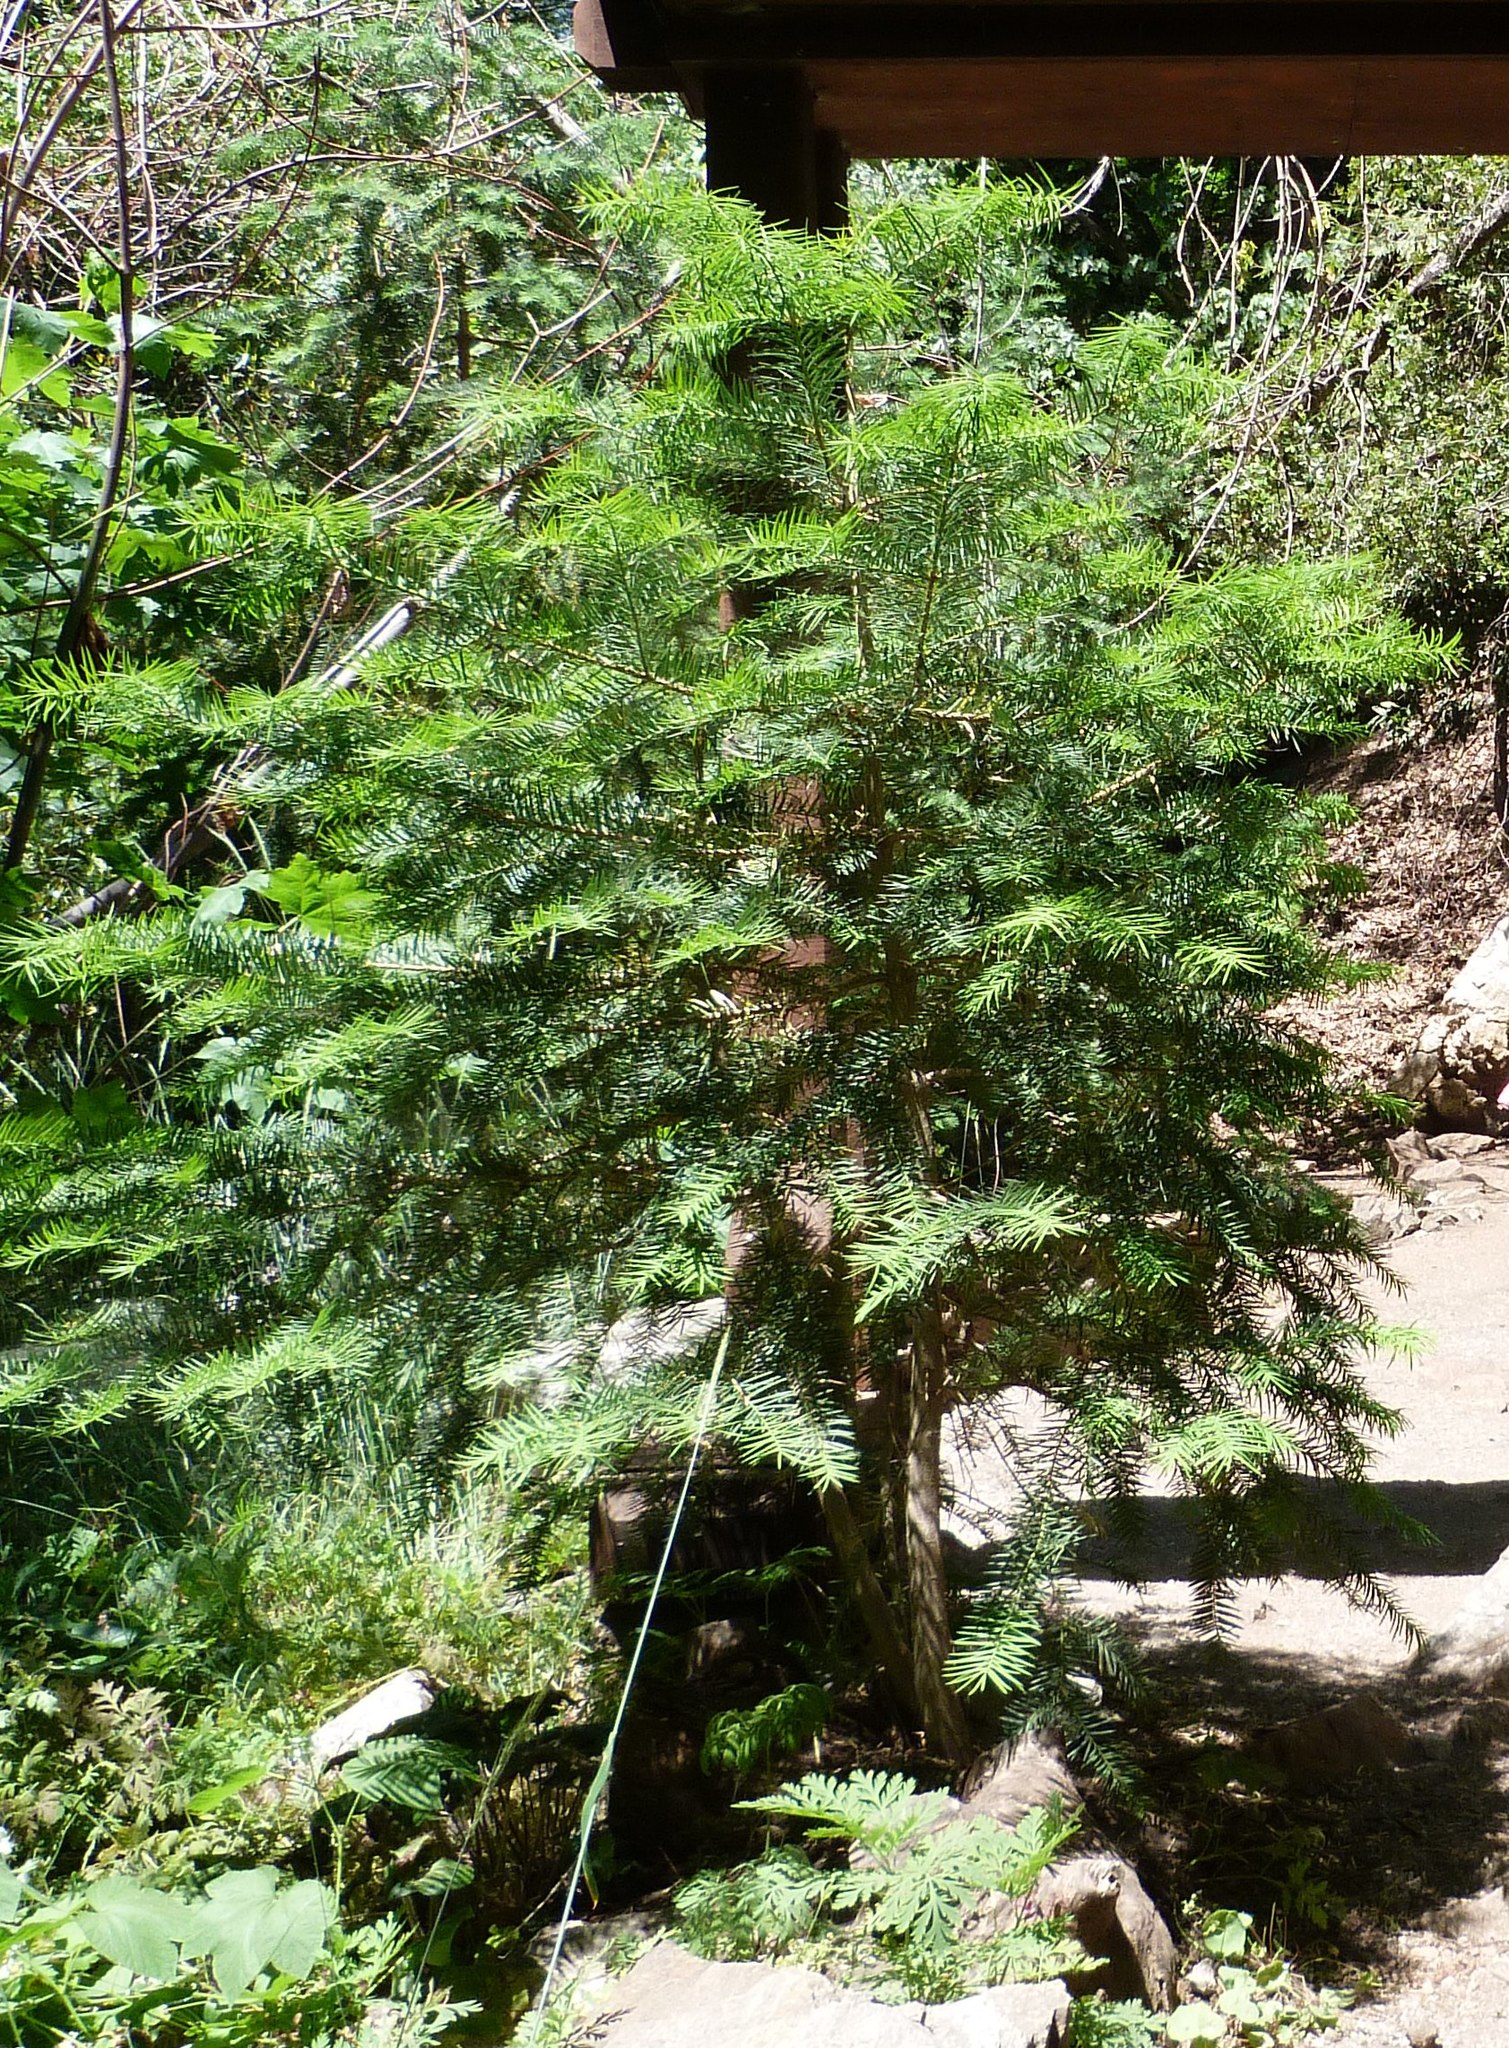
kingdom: Plantae
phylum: Tracheophyta
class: Pinopsida
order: Pinales
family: Taxaceae
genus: Torreya
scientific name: Torreya californica
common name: California torreya
